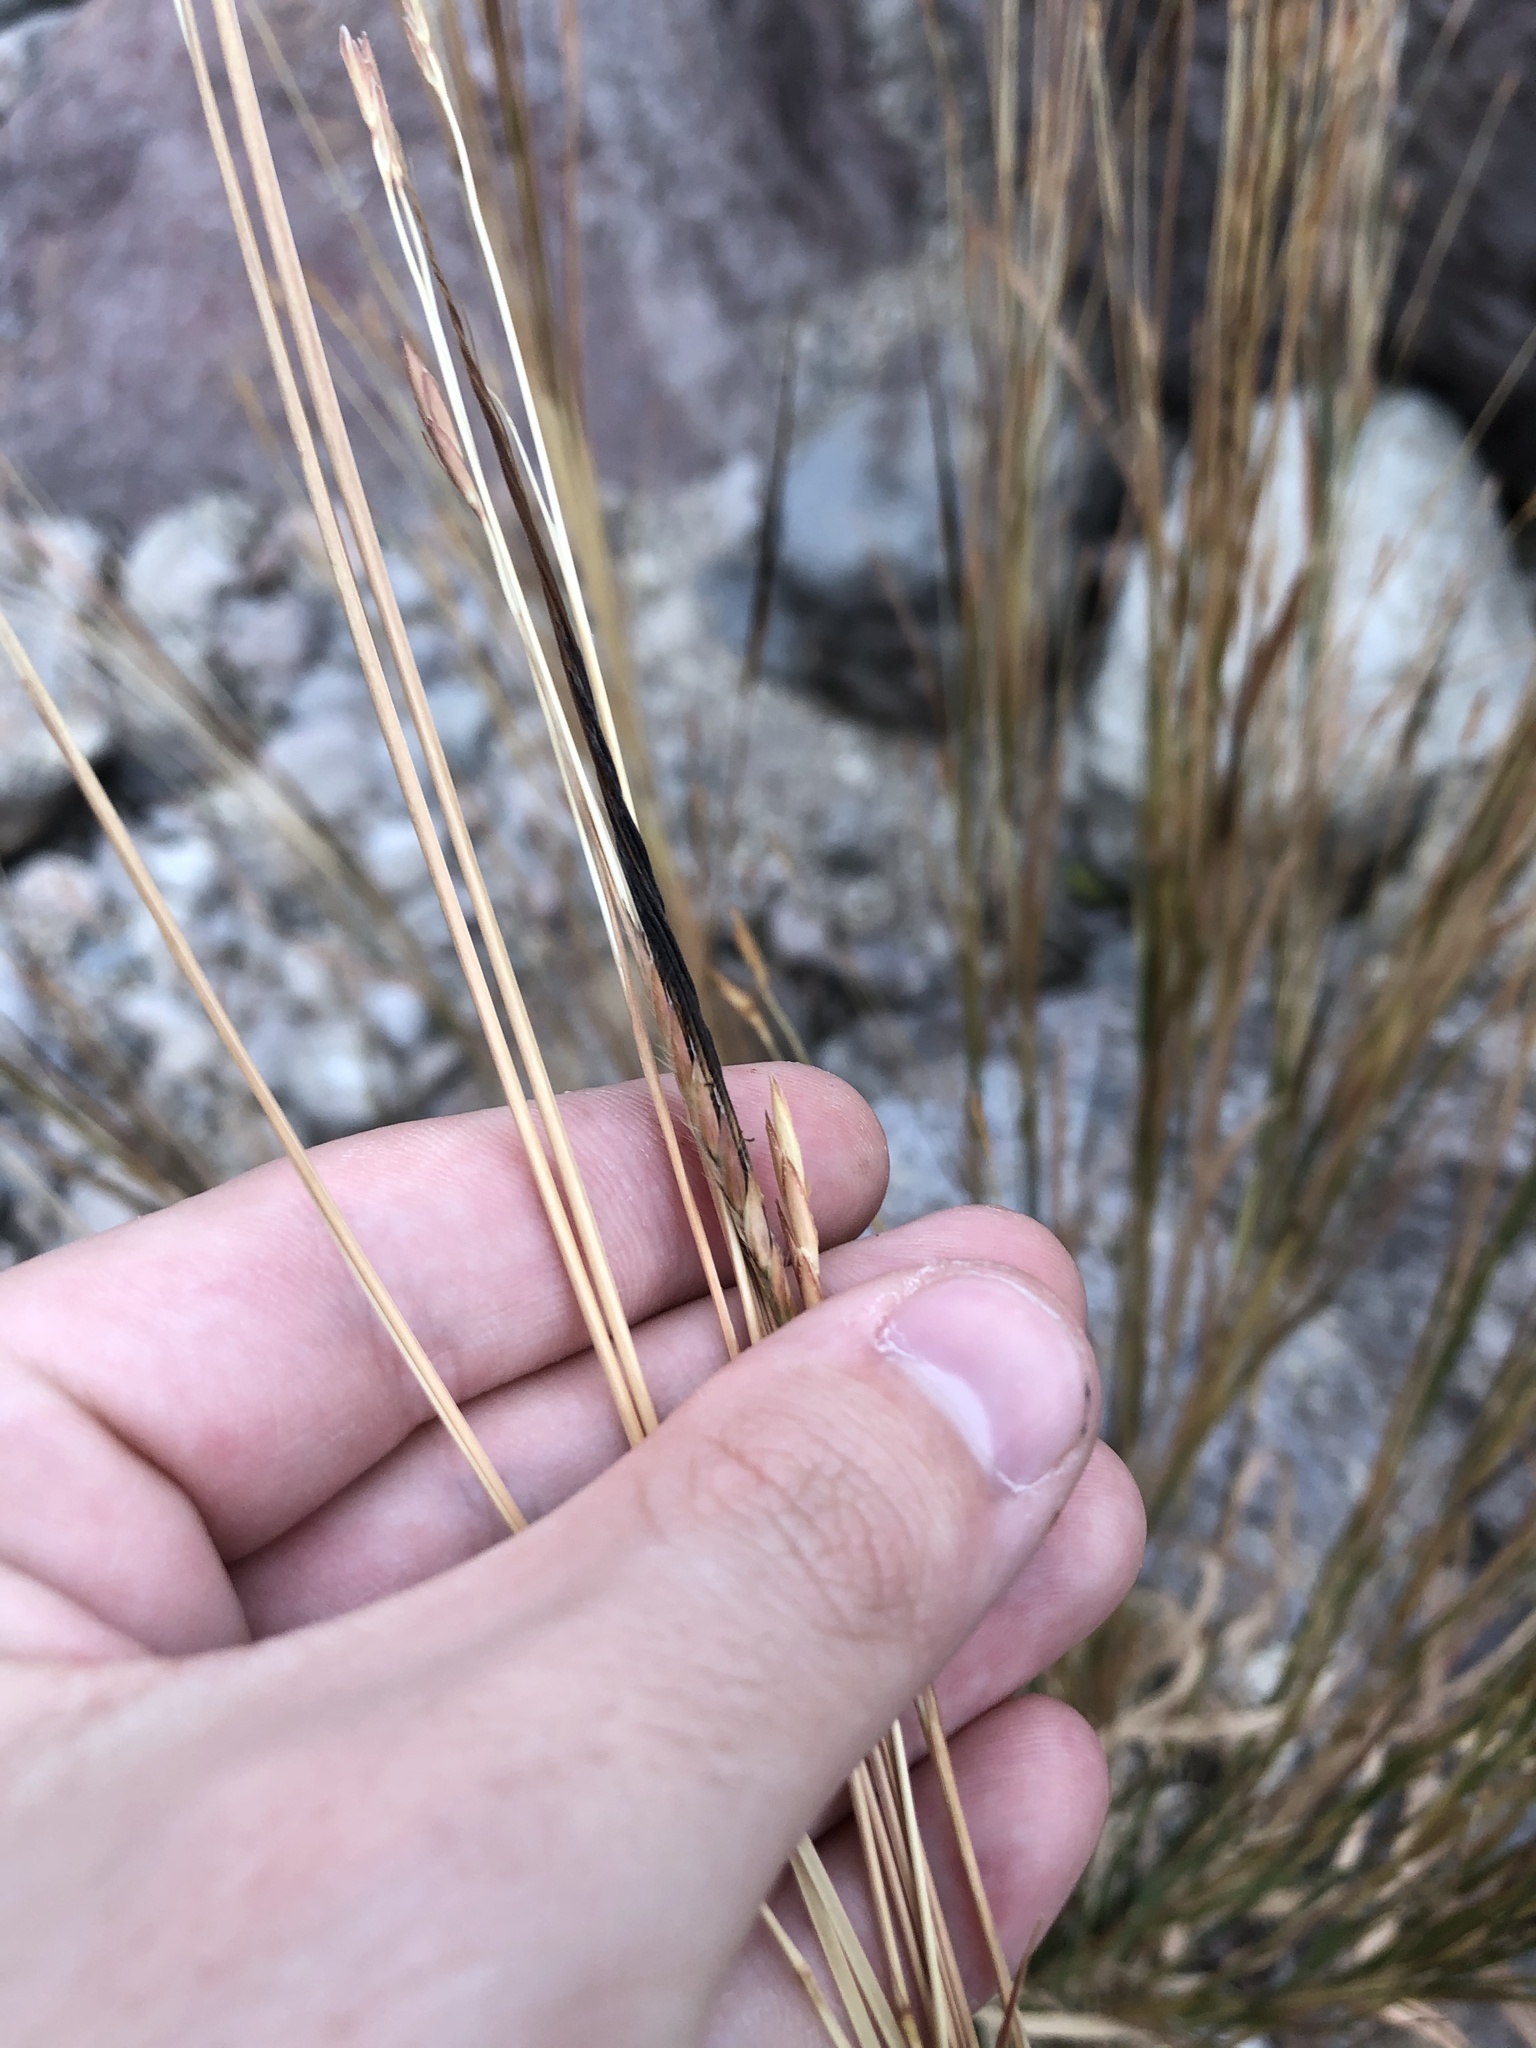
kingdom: Plantae
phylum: Tracheophyta
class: Liliopsida
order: Poales
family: Poaceae
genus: Heteropogon
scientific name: Heteropogon contortus
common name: Tanglehead
